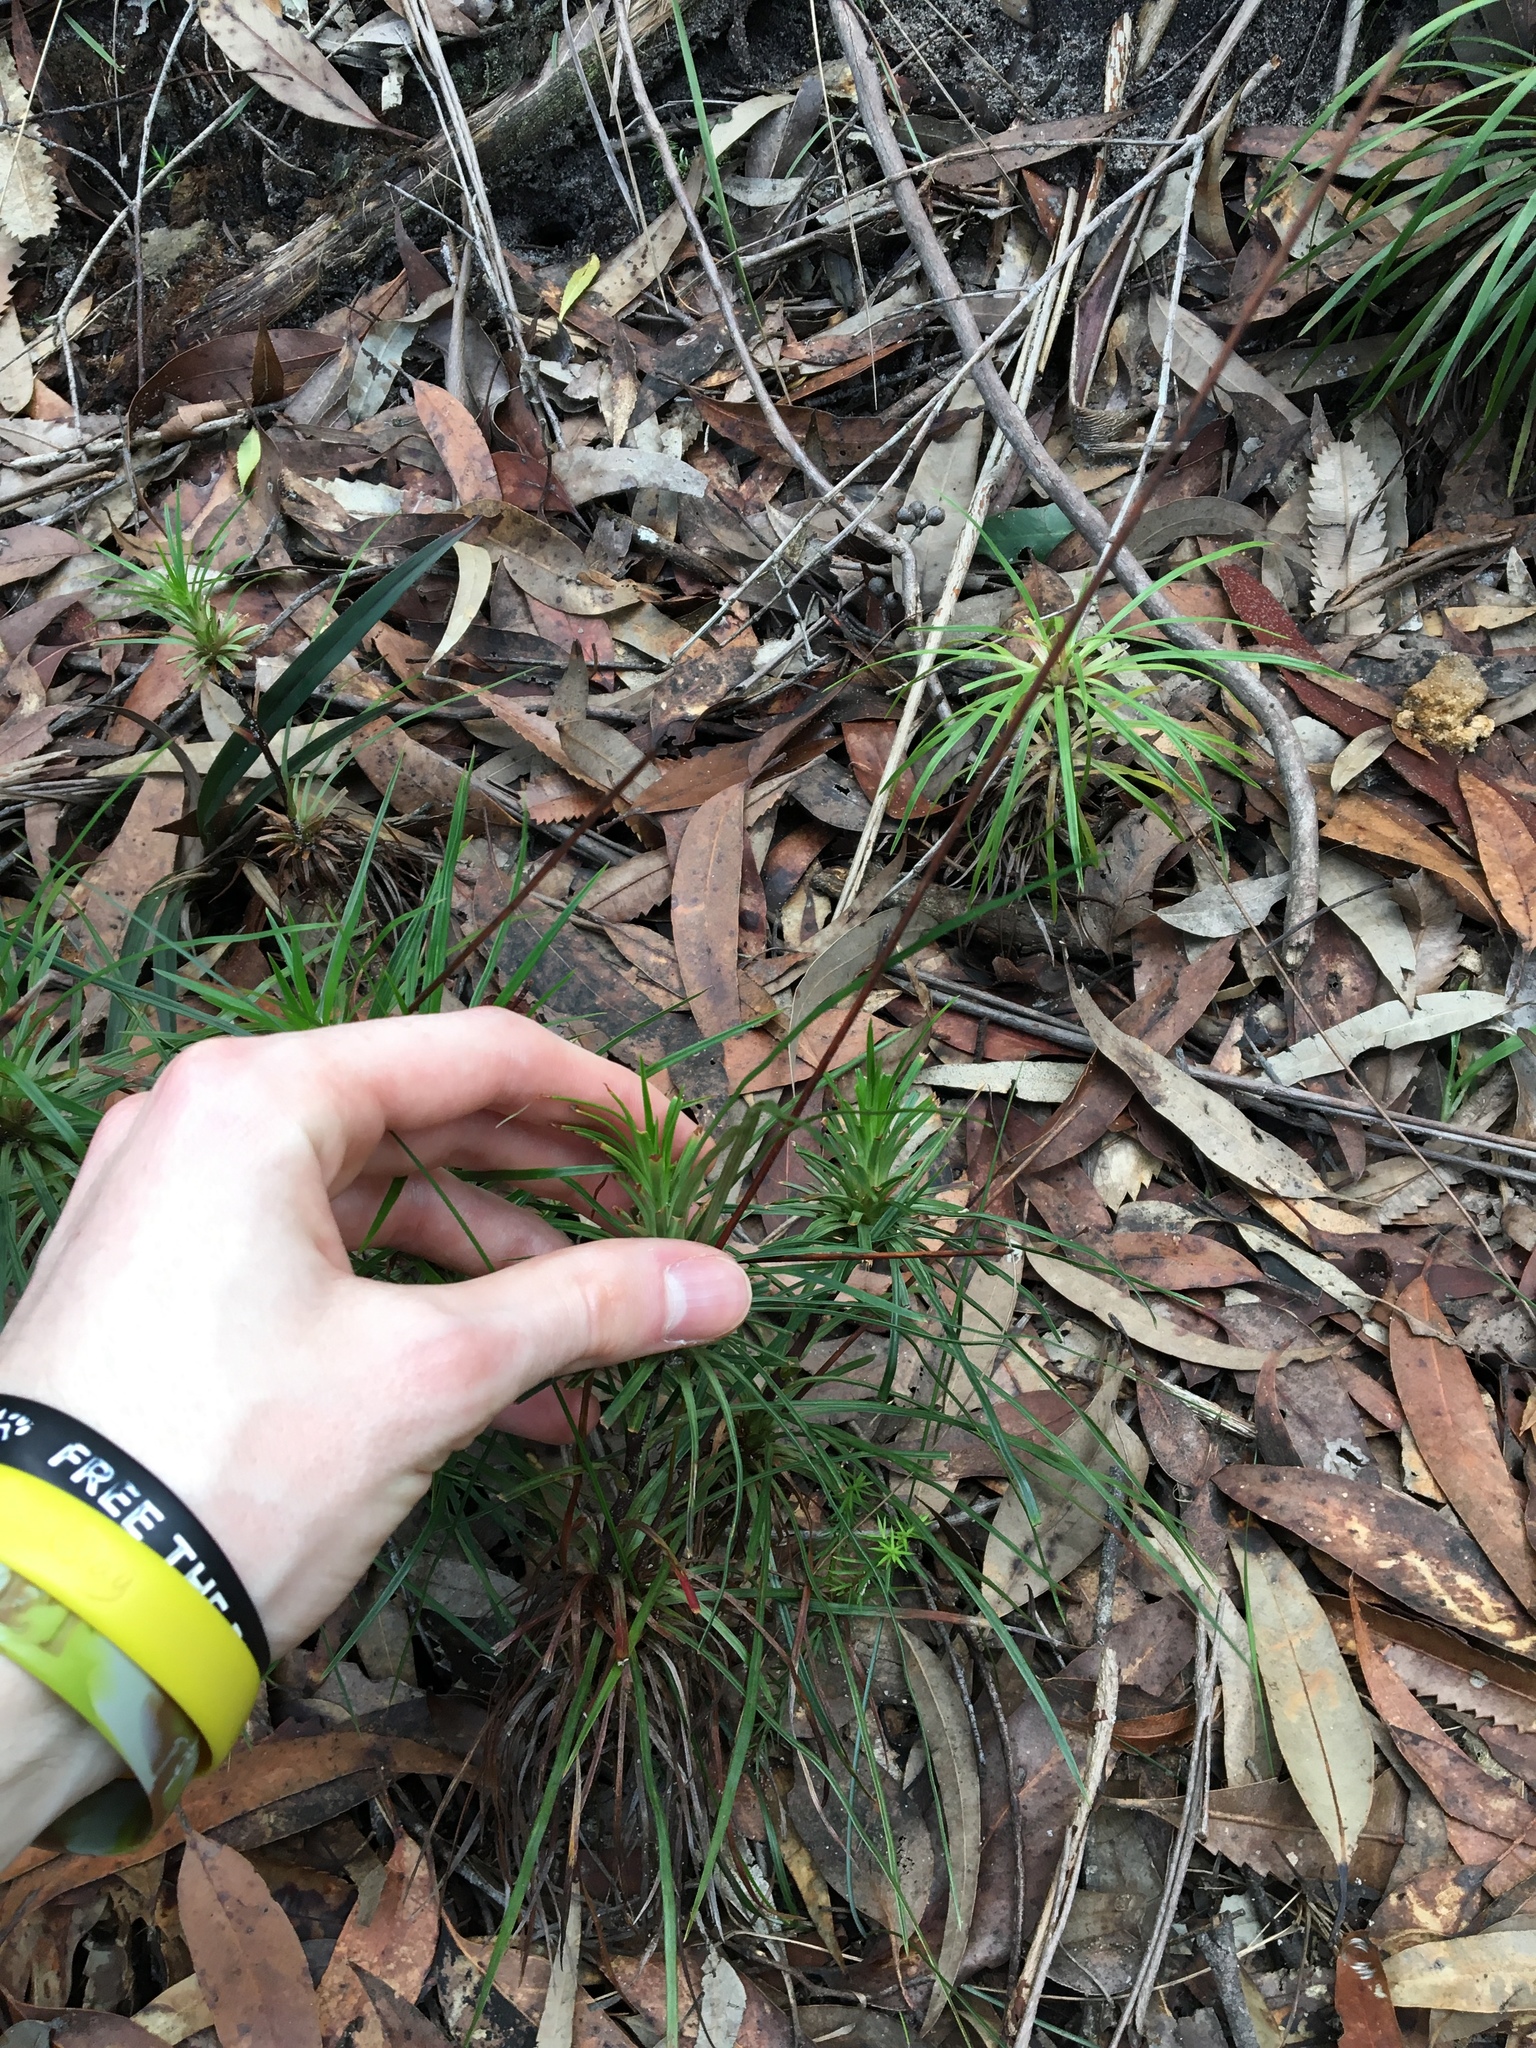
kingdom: Plantae
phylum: Tracheophyta
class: Magnoliopsida
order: Asterales
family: Stylidiaceae
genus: Stylidium
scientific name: Stylidium productum
